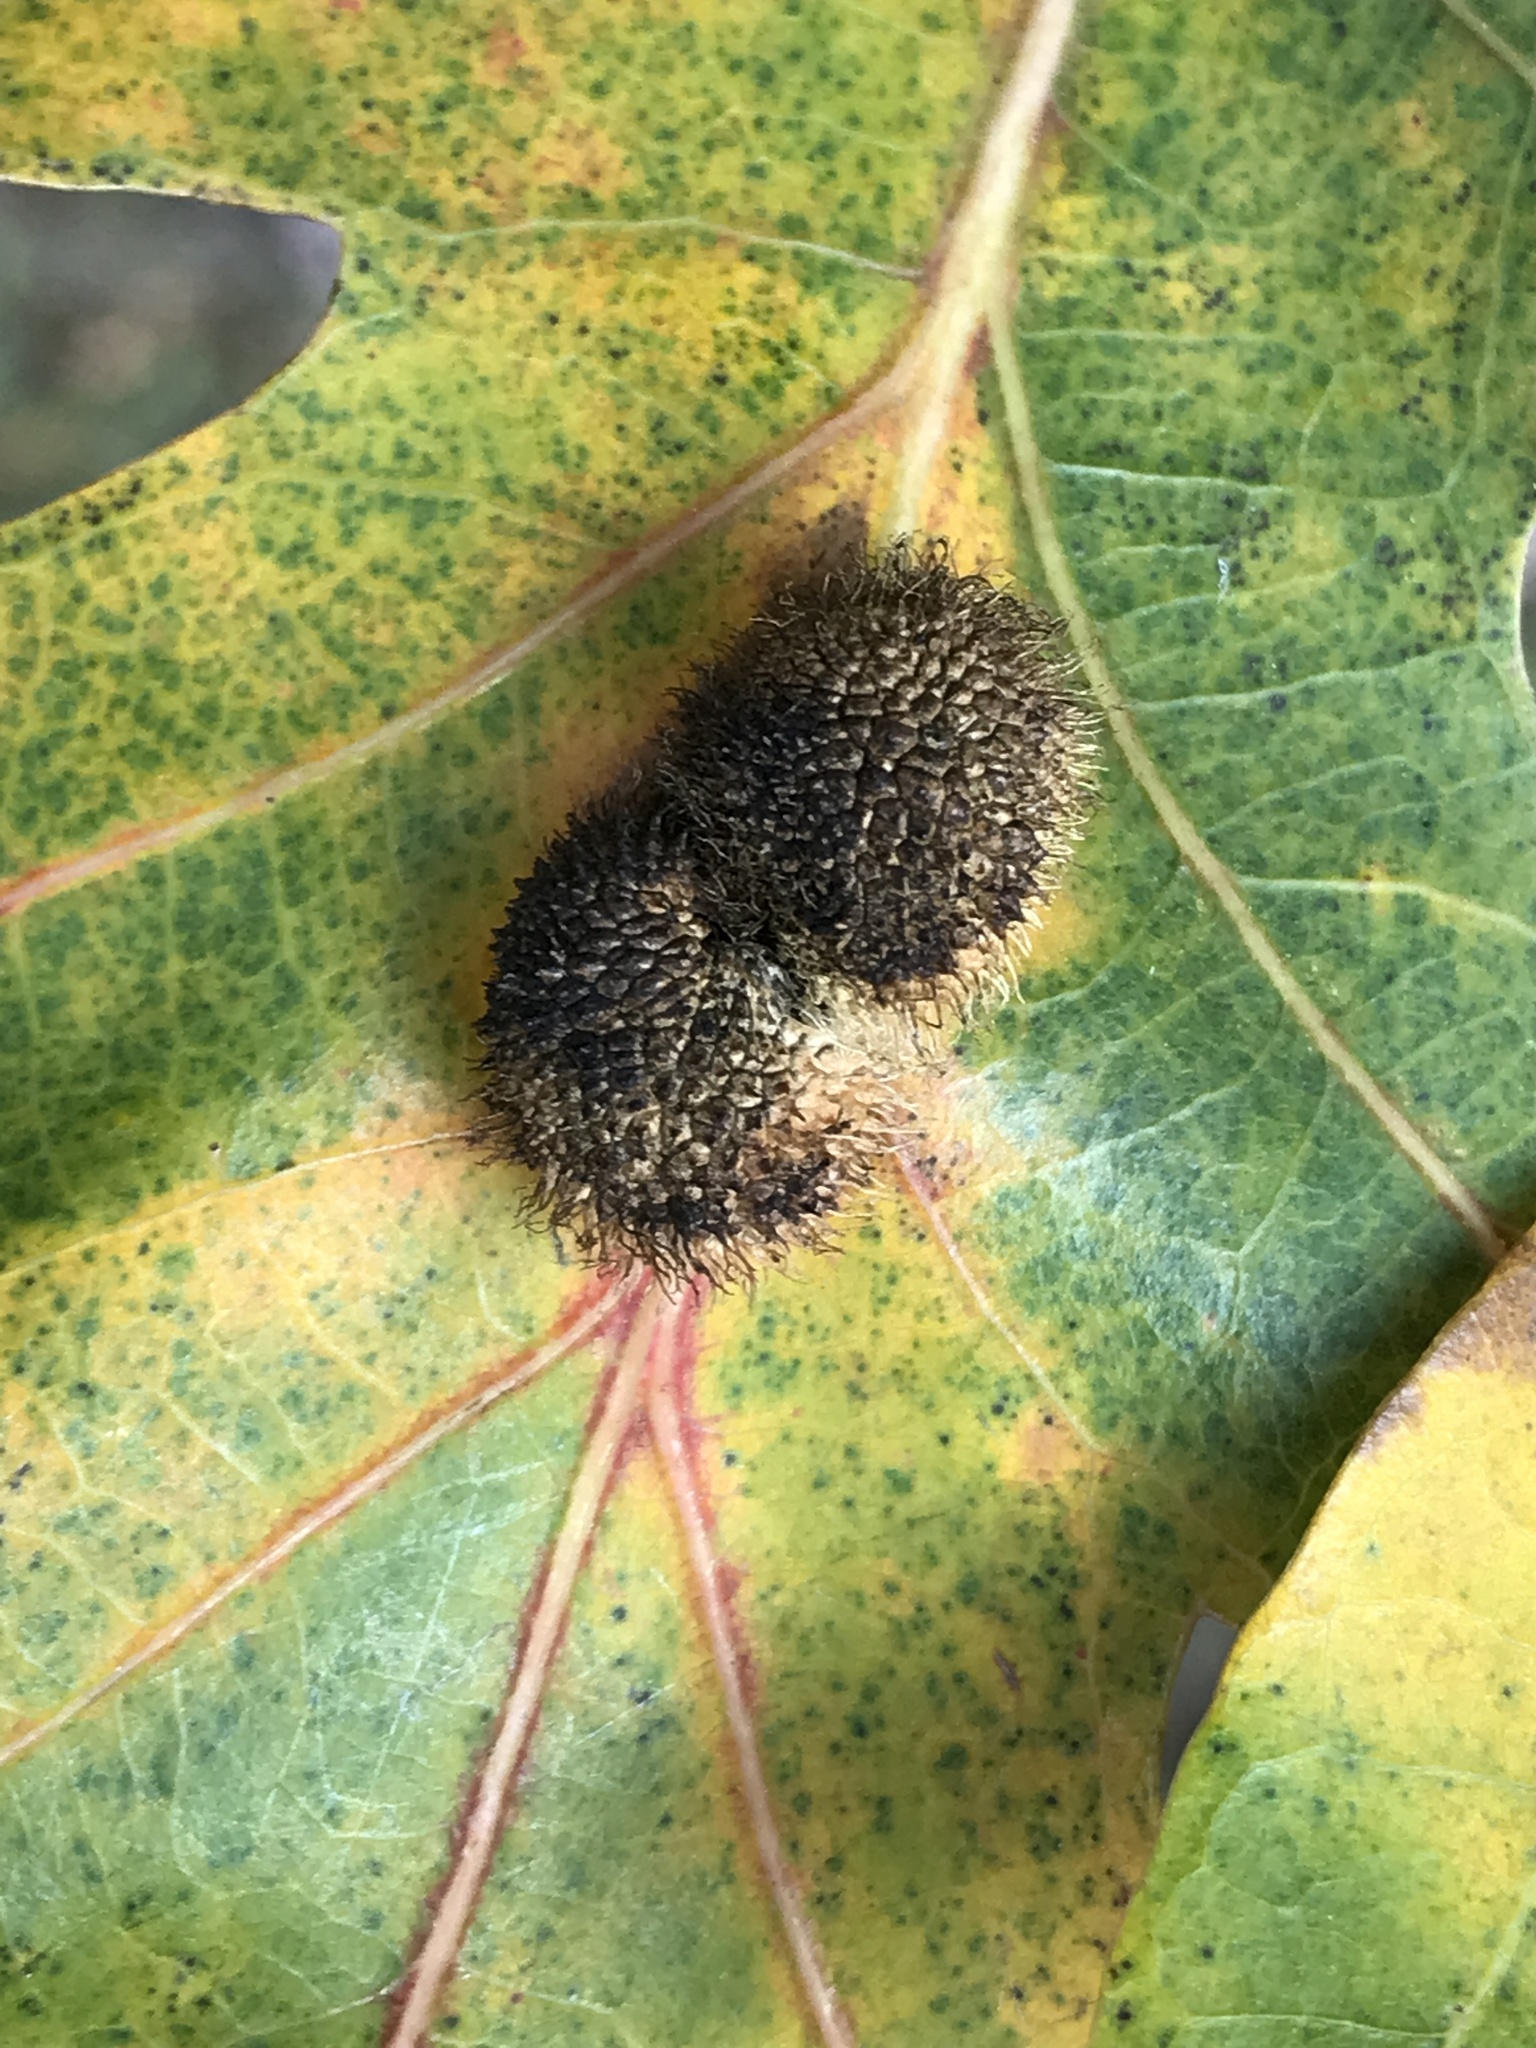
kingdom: Animalia
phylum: Arthropoda
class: Insecta
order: Hymenoptera
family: Cynipidae
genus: Acraspis
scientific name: Acraspis erinacei
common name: Hedgehog gall wasp
